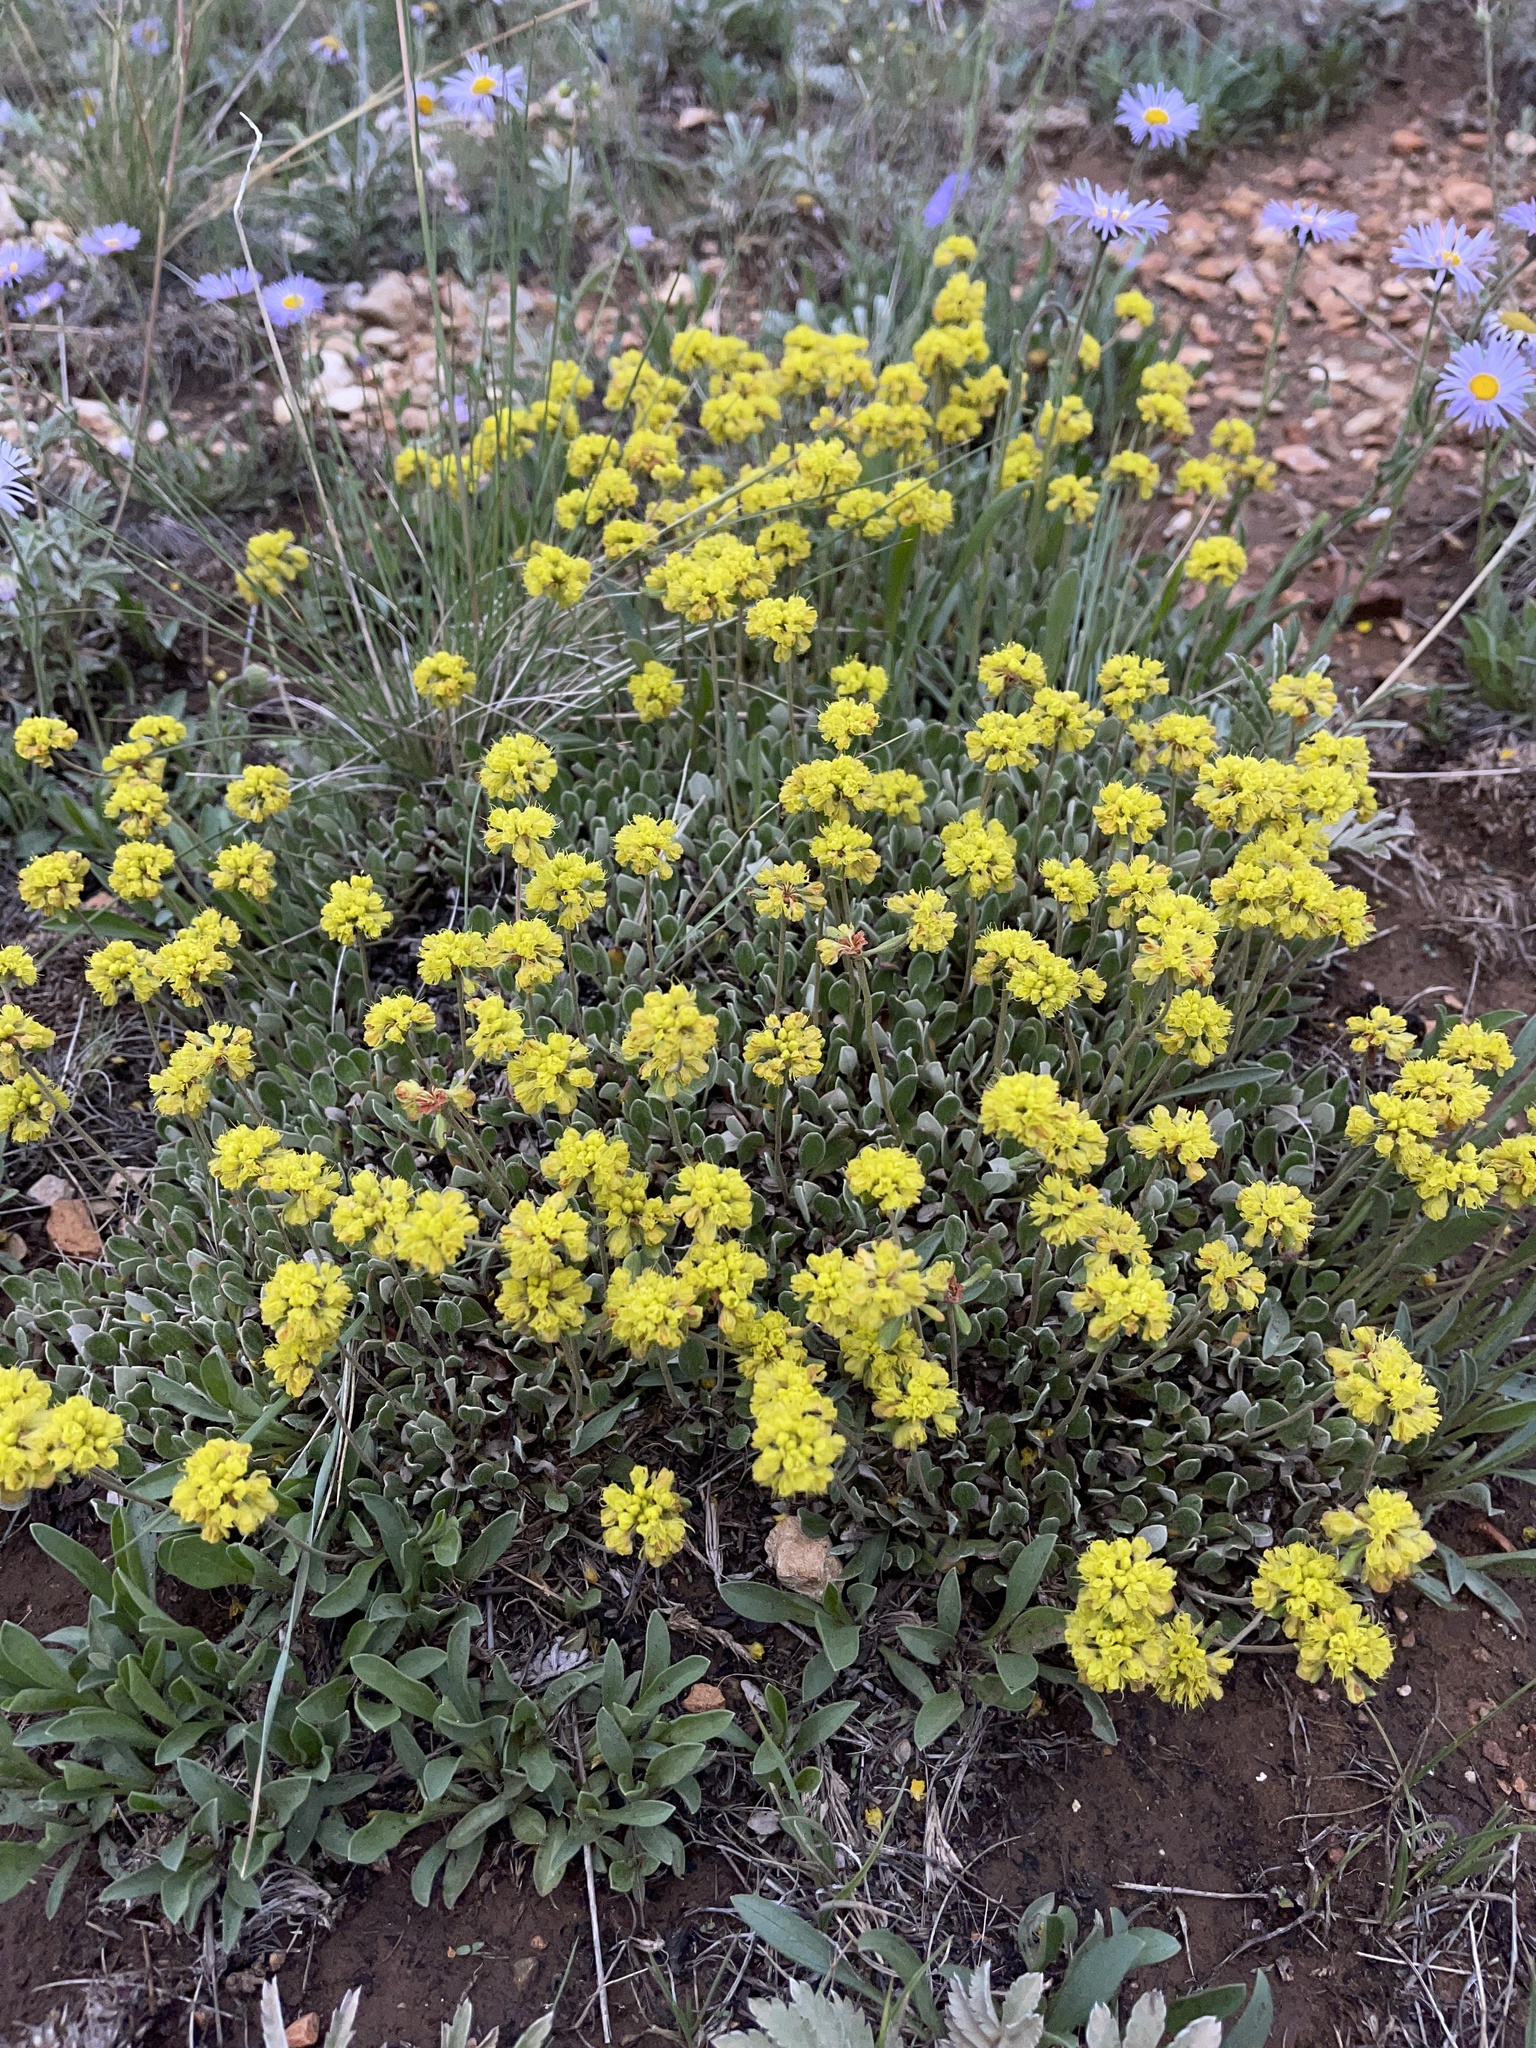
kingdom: Plantae
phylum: Tracheophyta
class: Magnoliopsida
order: Caryophyllales
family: Polygonaceae
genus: Eriogonum
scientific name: Eriogonum umbellatum
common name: Sulfur-buckwheat
